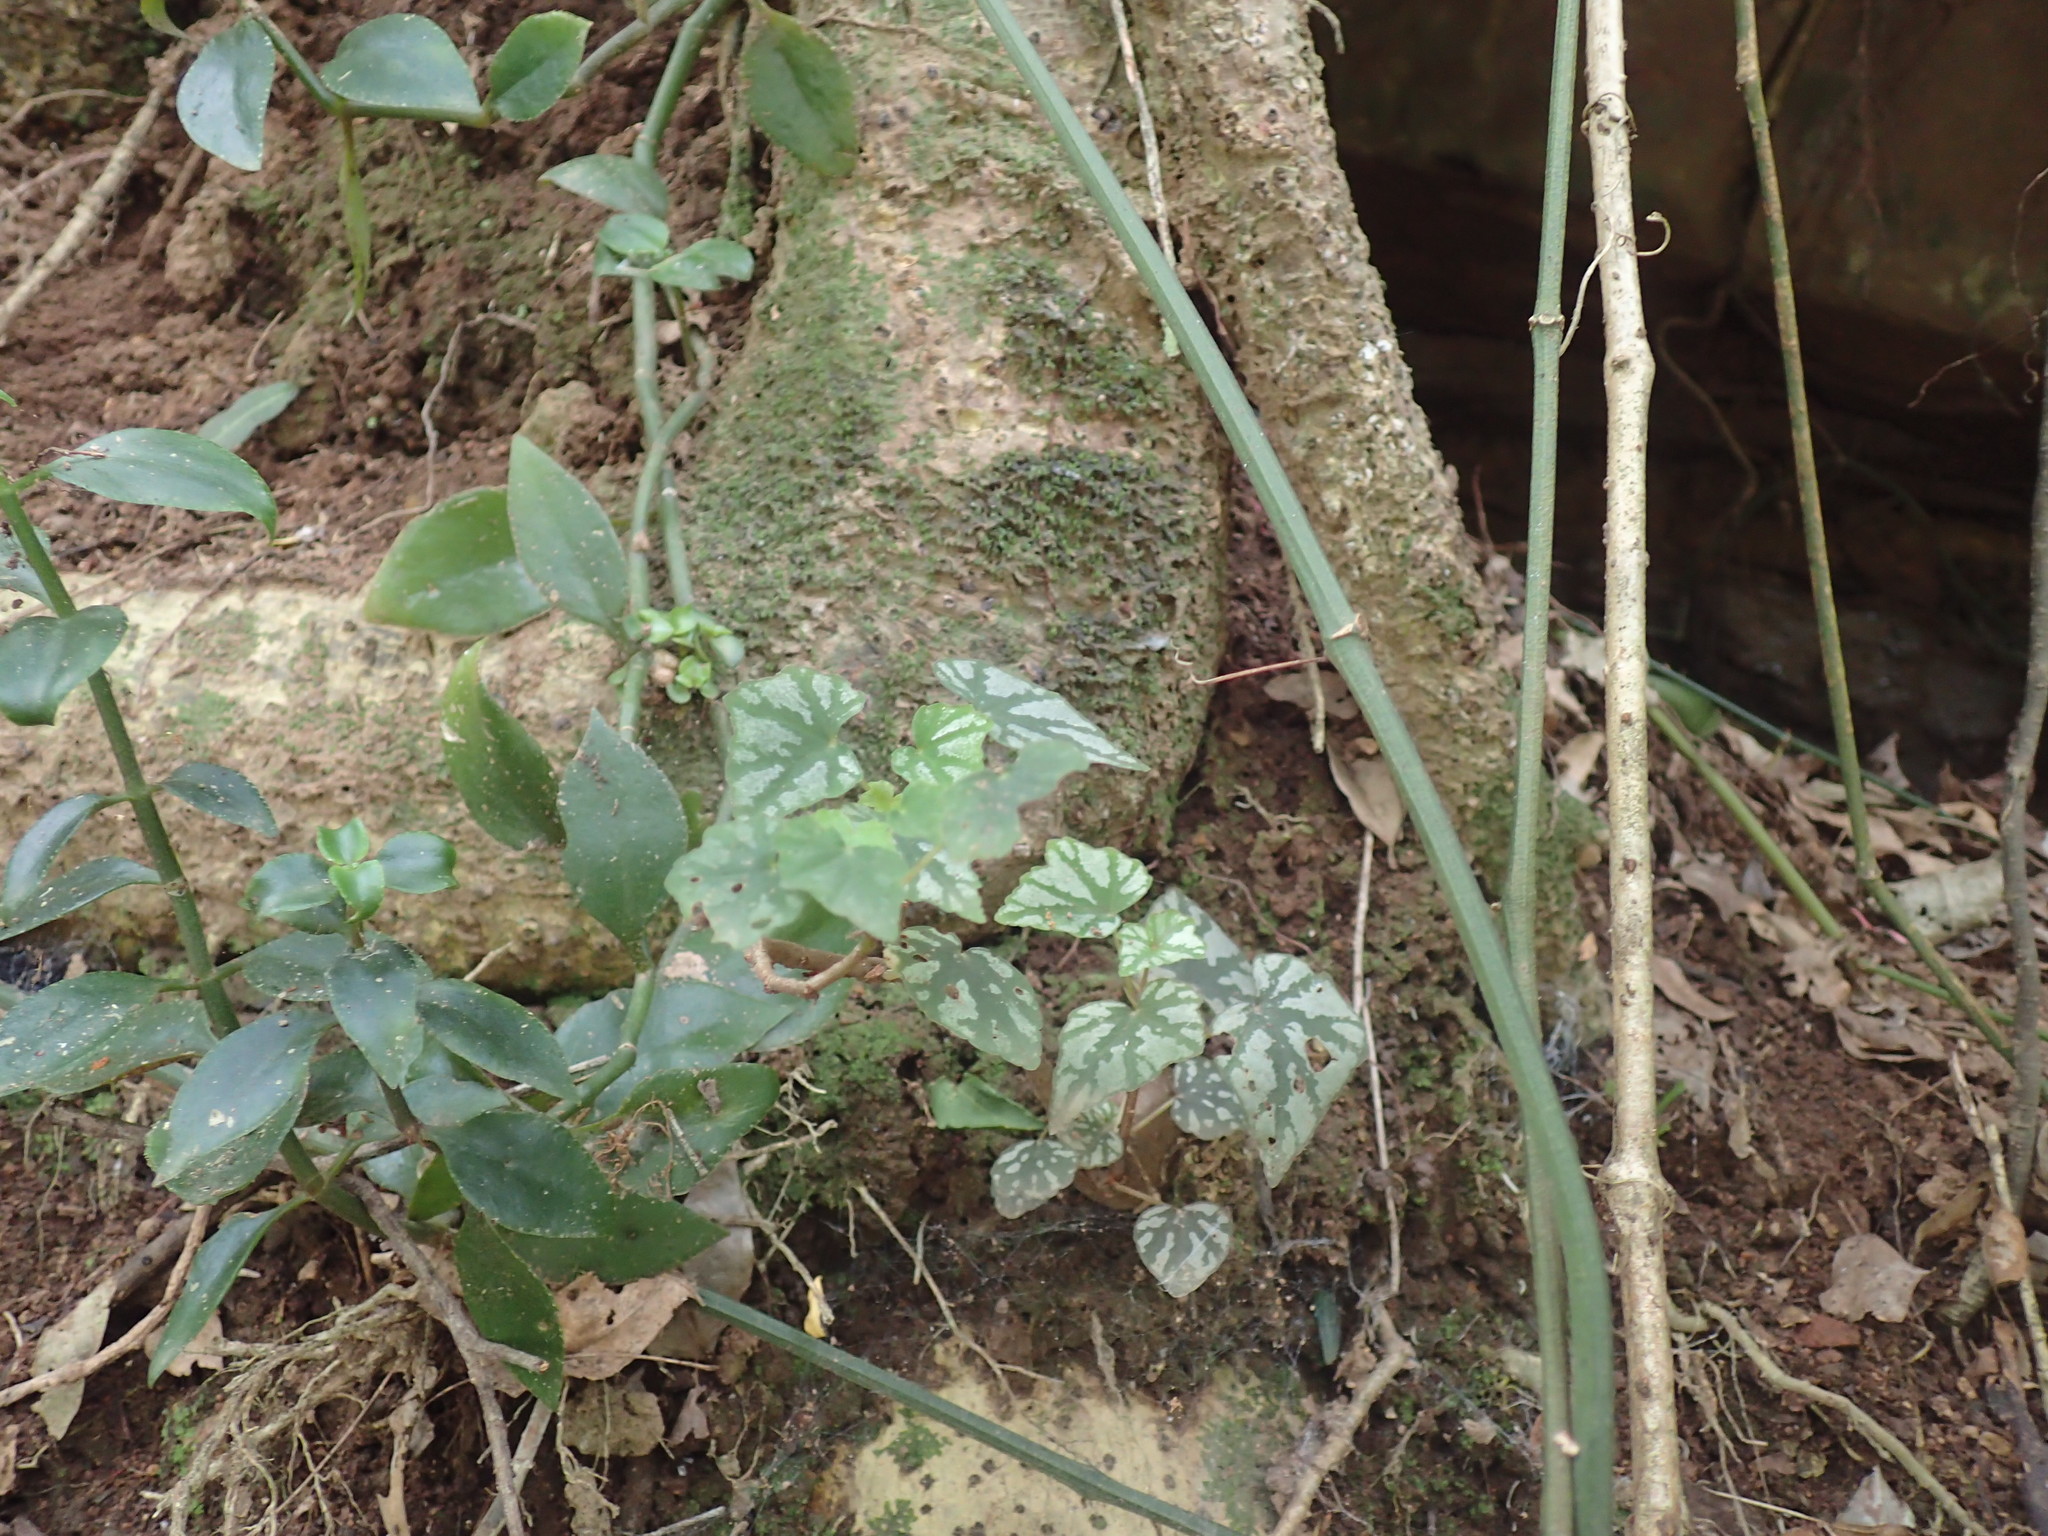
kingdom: Plantae
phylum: Tracheophyta
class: Magnoliopsida
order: Cucurbitales
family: Begoniaceae
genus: Begonia
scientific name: Begonia homonyma
